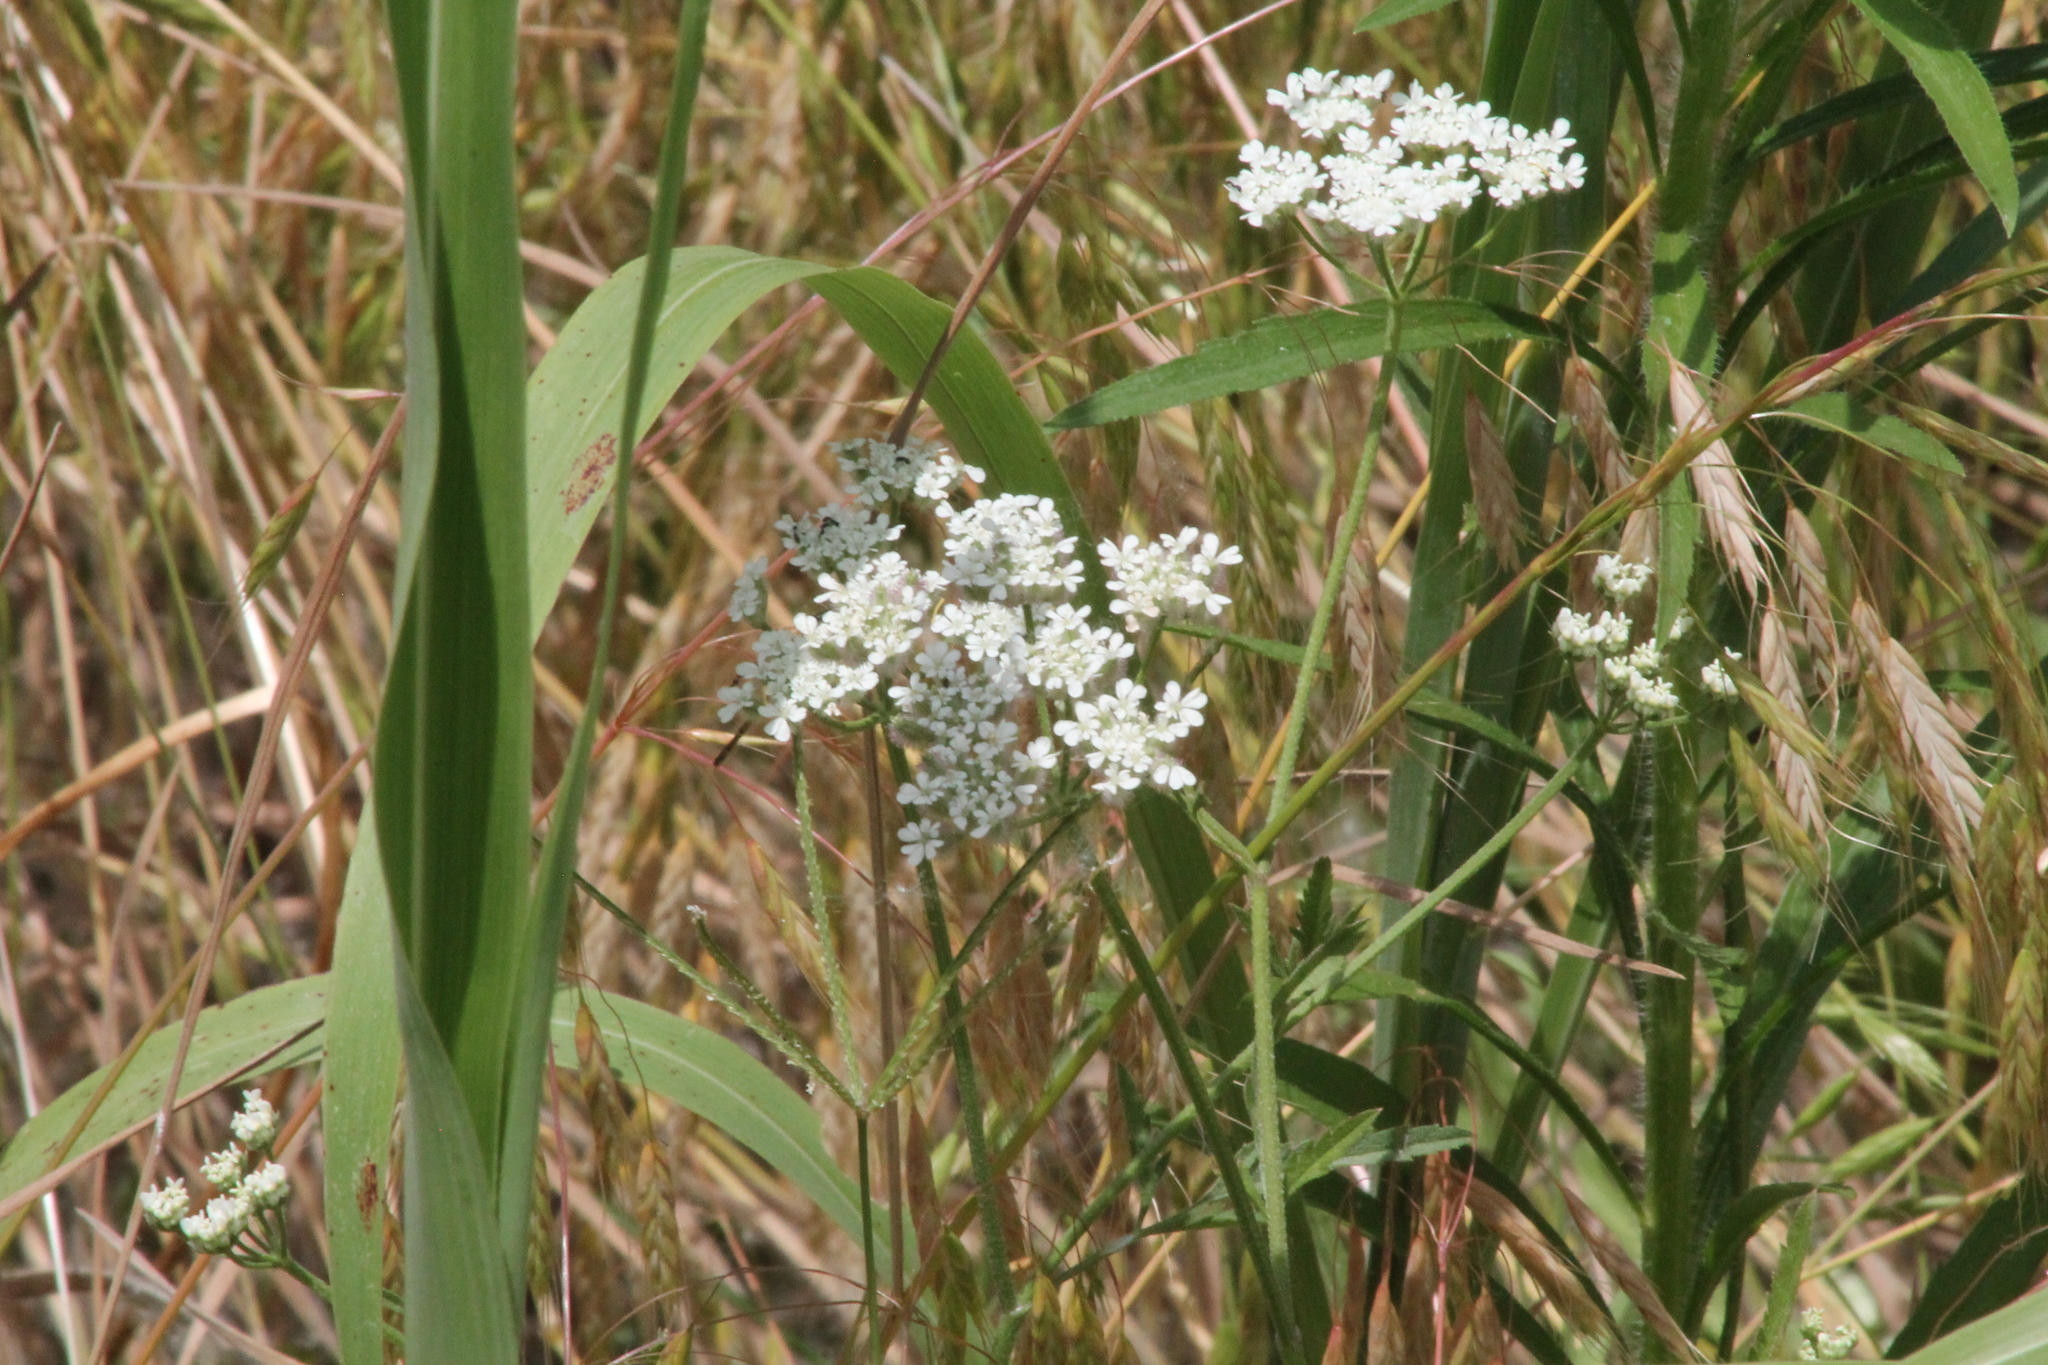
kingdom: Plantae
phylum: Tracheophyta
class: Magnoliopsida
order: Apiales
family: Apiaceae
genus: Torilis
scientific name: Torilis arvensis
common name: Spreading hedge-parsley
